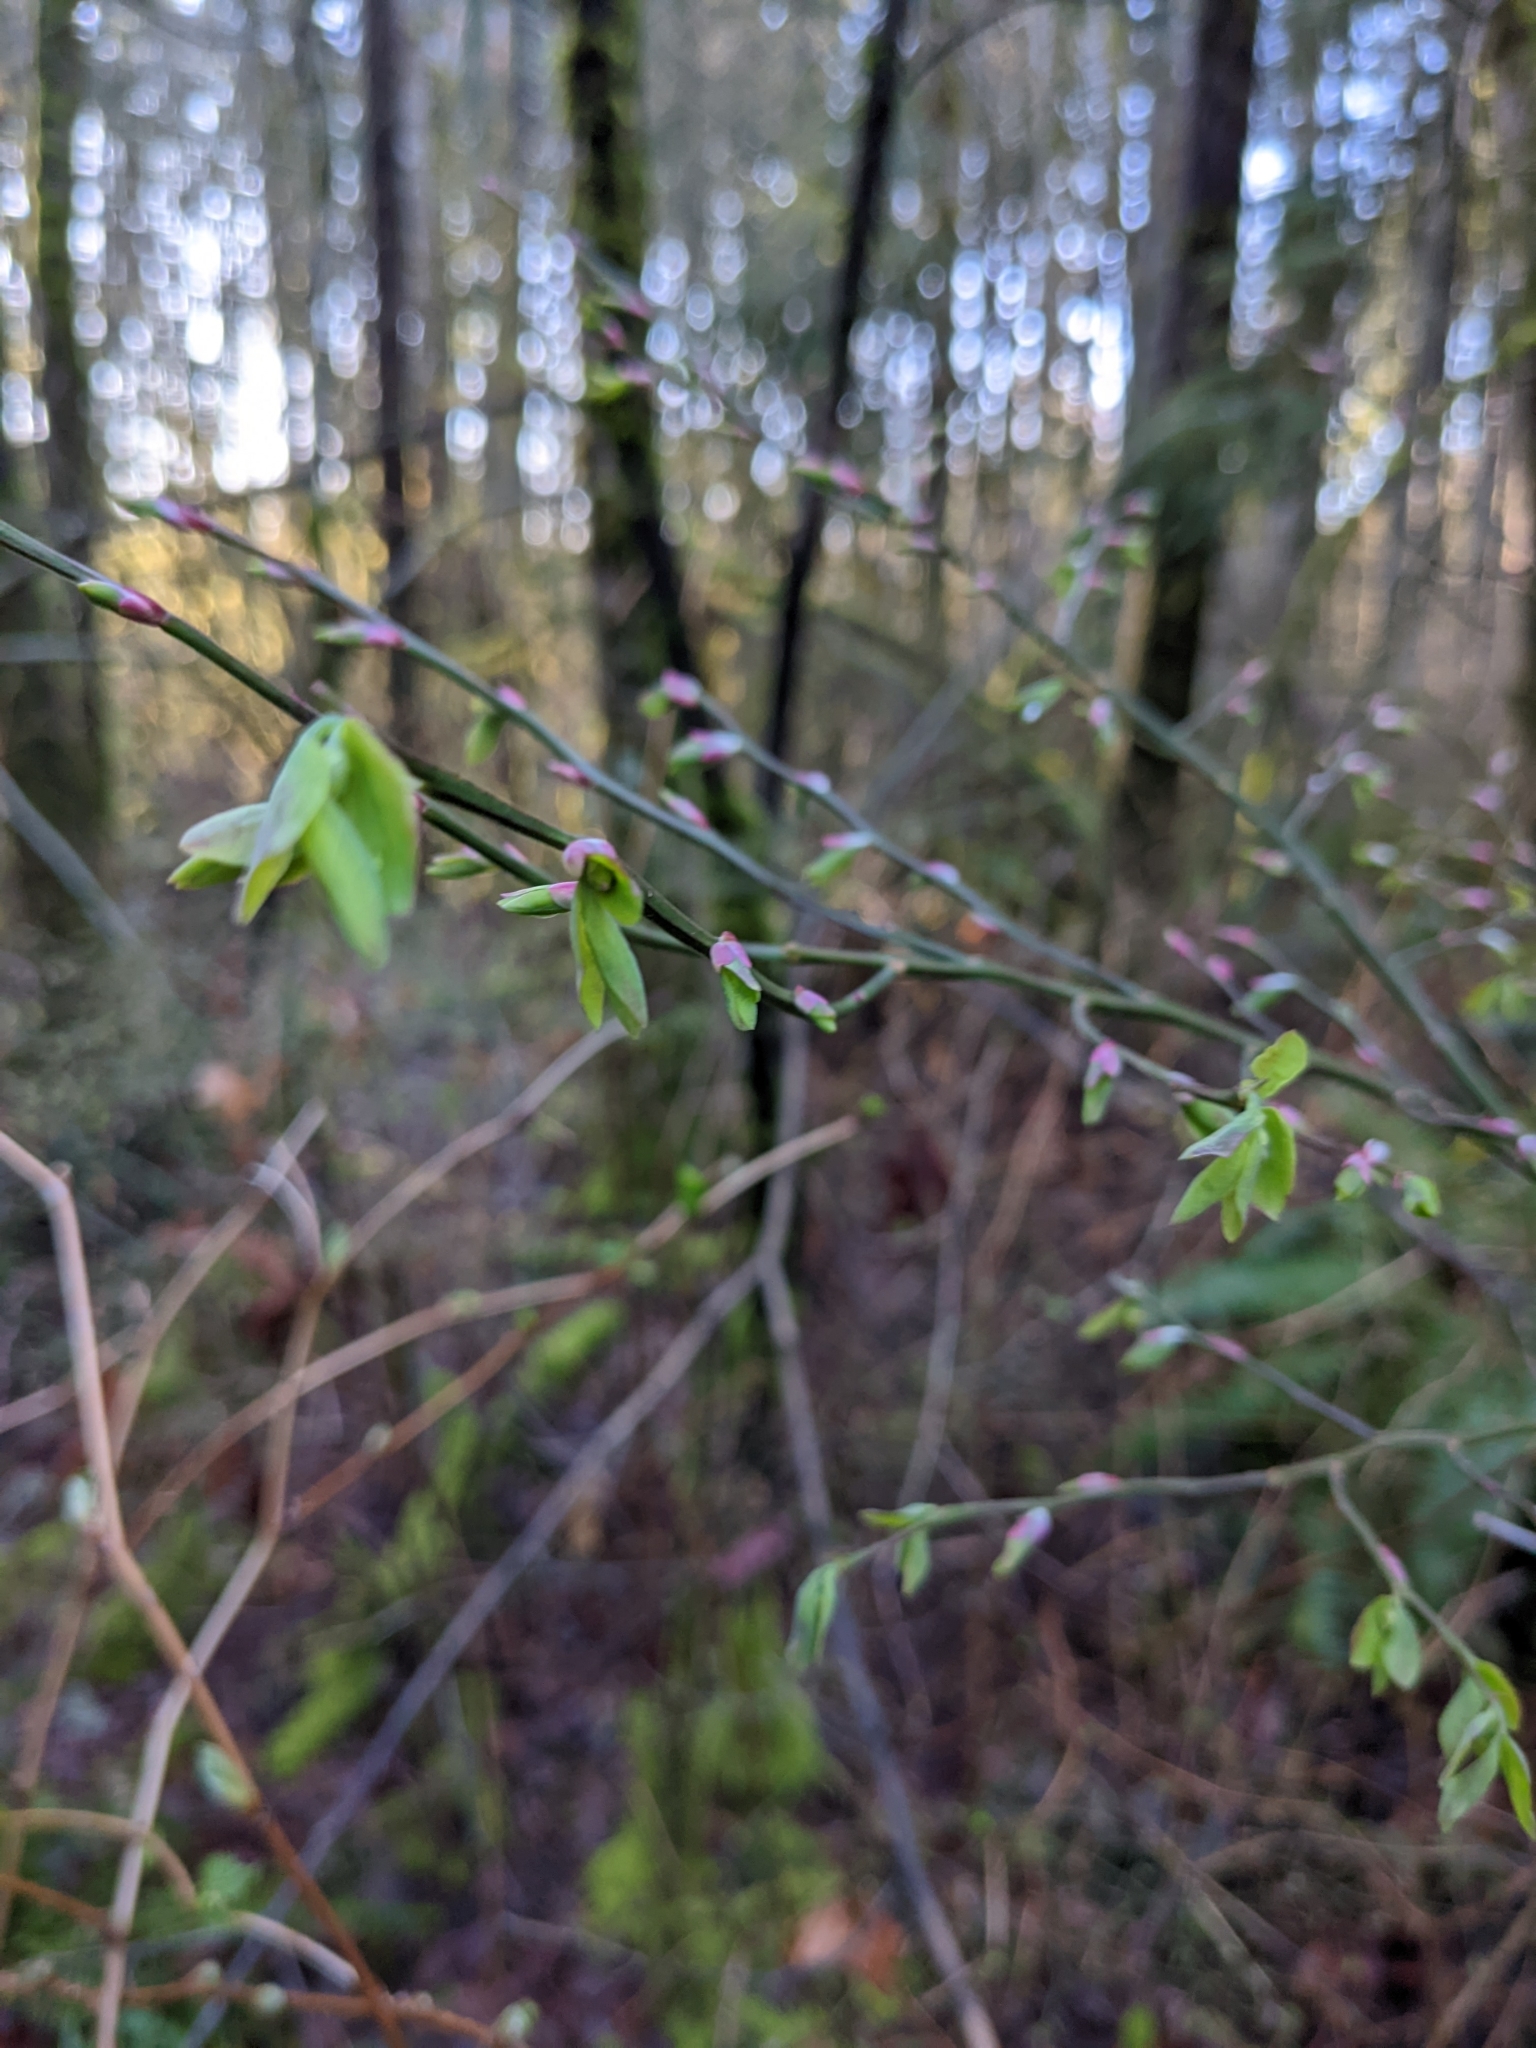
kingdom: Plantae
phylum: Tracheophyta
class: Magnoliopsida
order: Ericales
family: Ericaceae
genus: Vaccinium
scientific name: Vaccinium parvifolium
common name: Red-huckleberry
